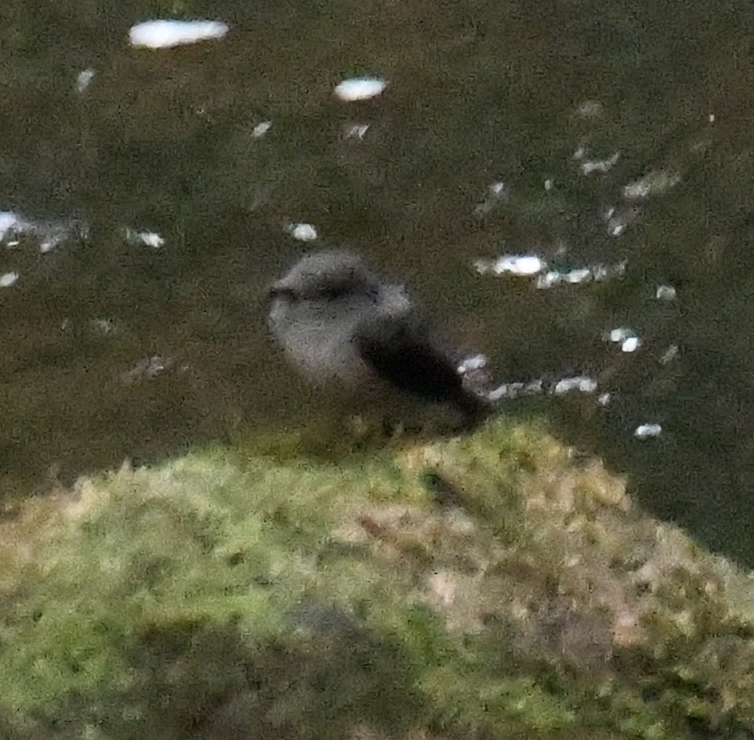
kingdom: Animalia
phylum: Chordata
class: Aves
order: Passeriformes
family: Muscicapidae
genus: Muscicapa
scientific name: Muscicapa cassini
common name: Cassin's flycatcher
